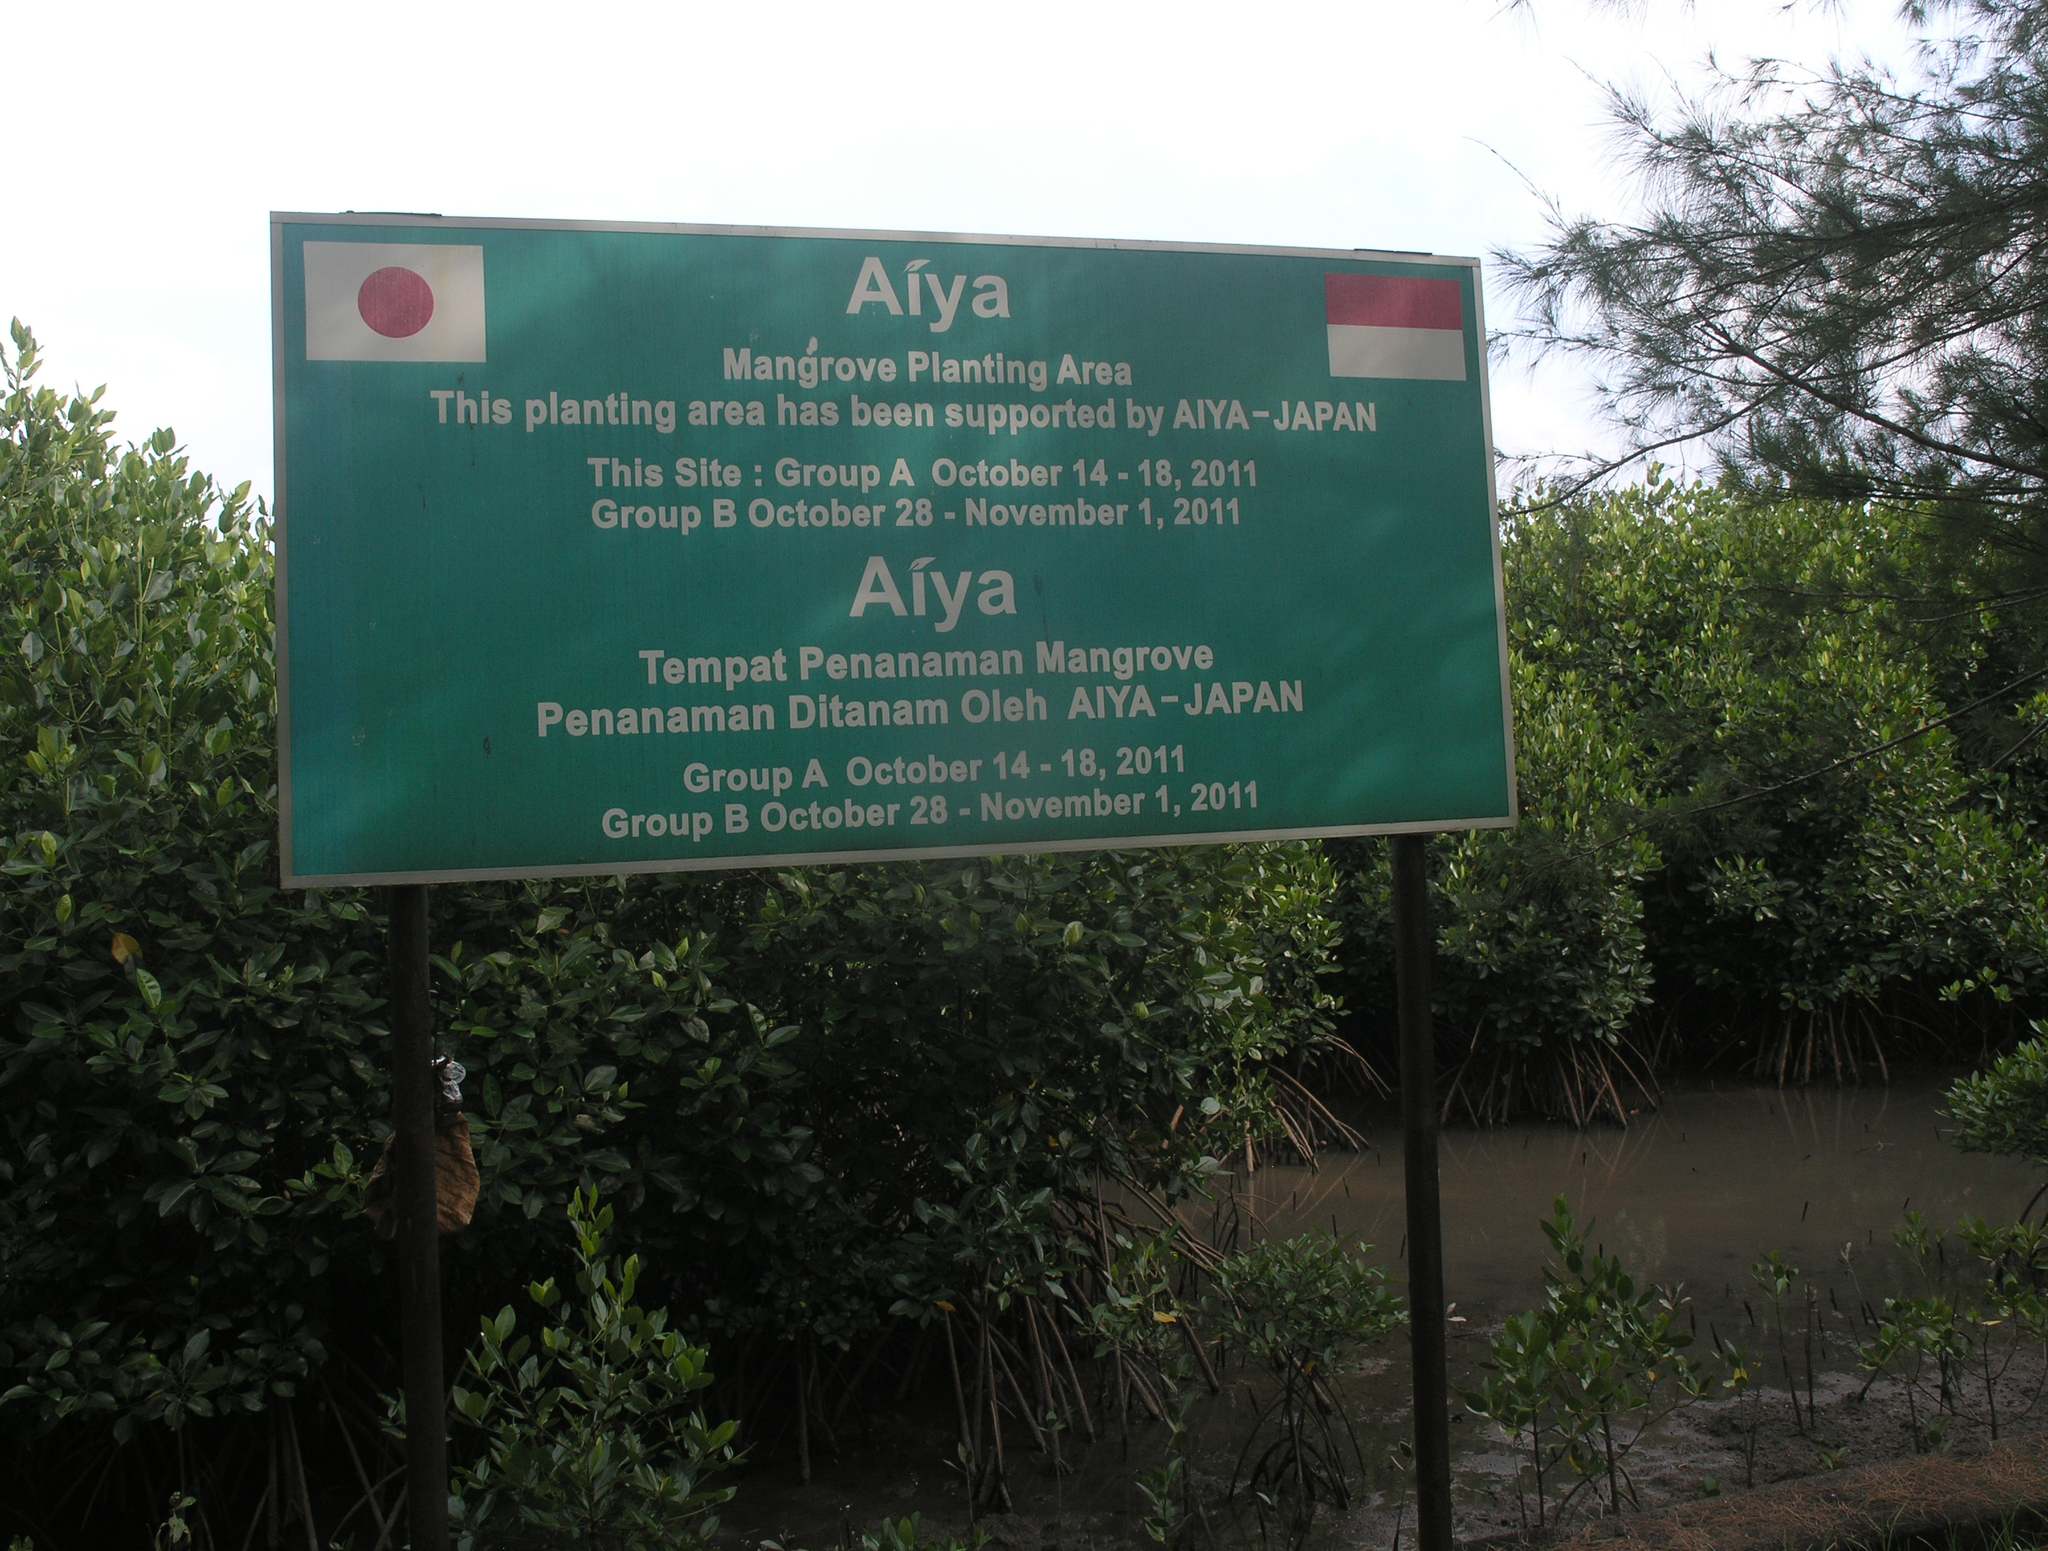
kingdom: Plantae
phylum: Tracheophyta
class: Magnoliopsida
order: Myrtales
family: Lythraceae
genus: Sonneratia
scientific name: Sonneratia alba
